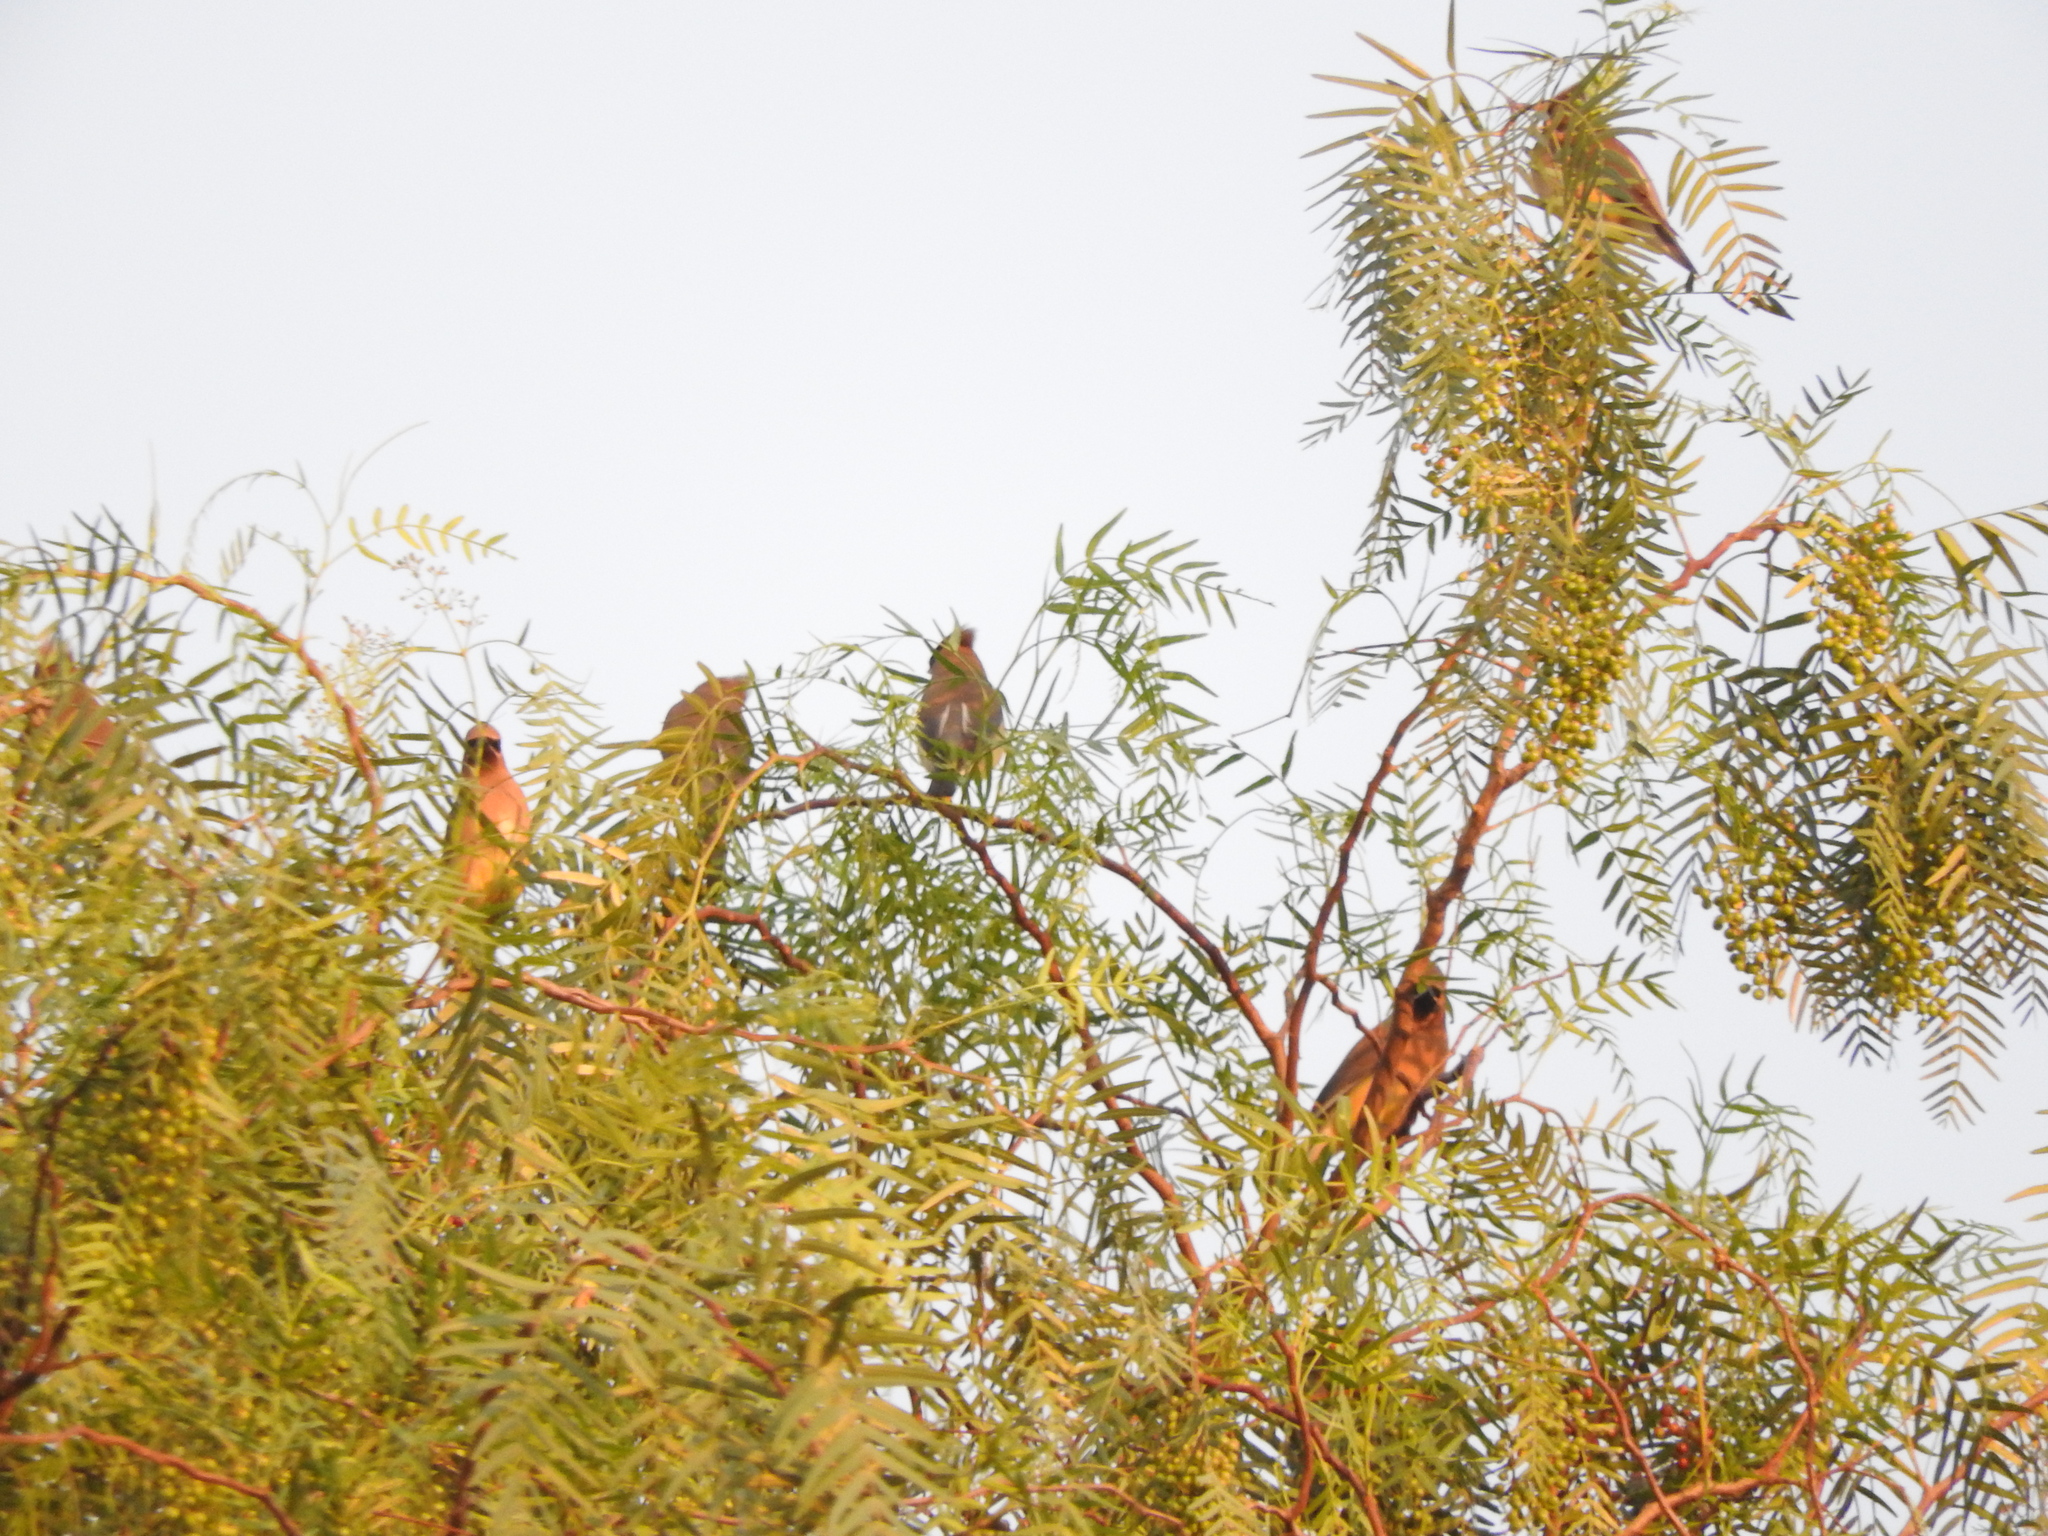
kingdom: Animalia
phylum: Chordata
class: Aves
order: Passeriformes
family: Bombycillidae
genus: Bombycilla
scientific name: Bombycilla cedrorum
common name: Cedar waxwing
